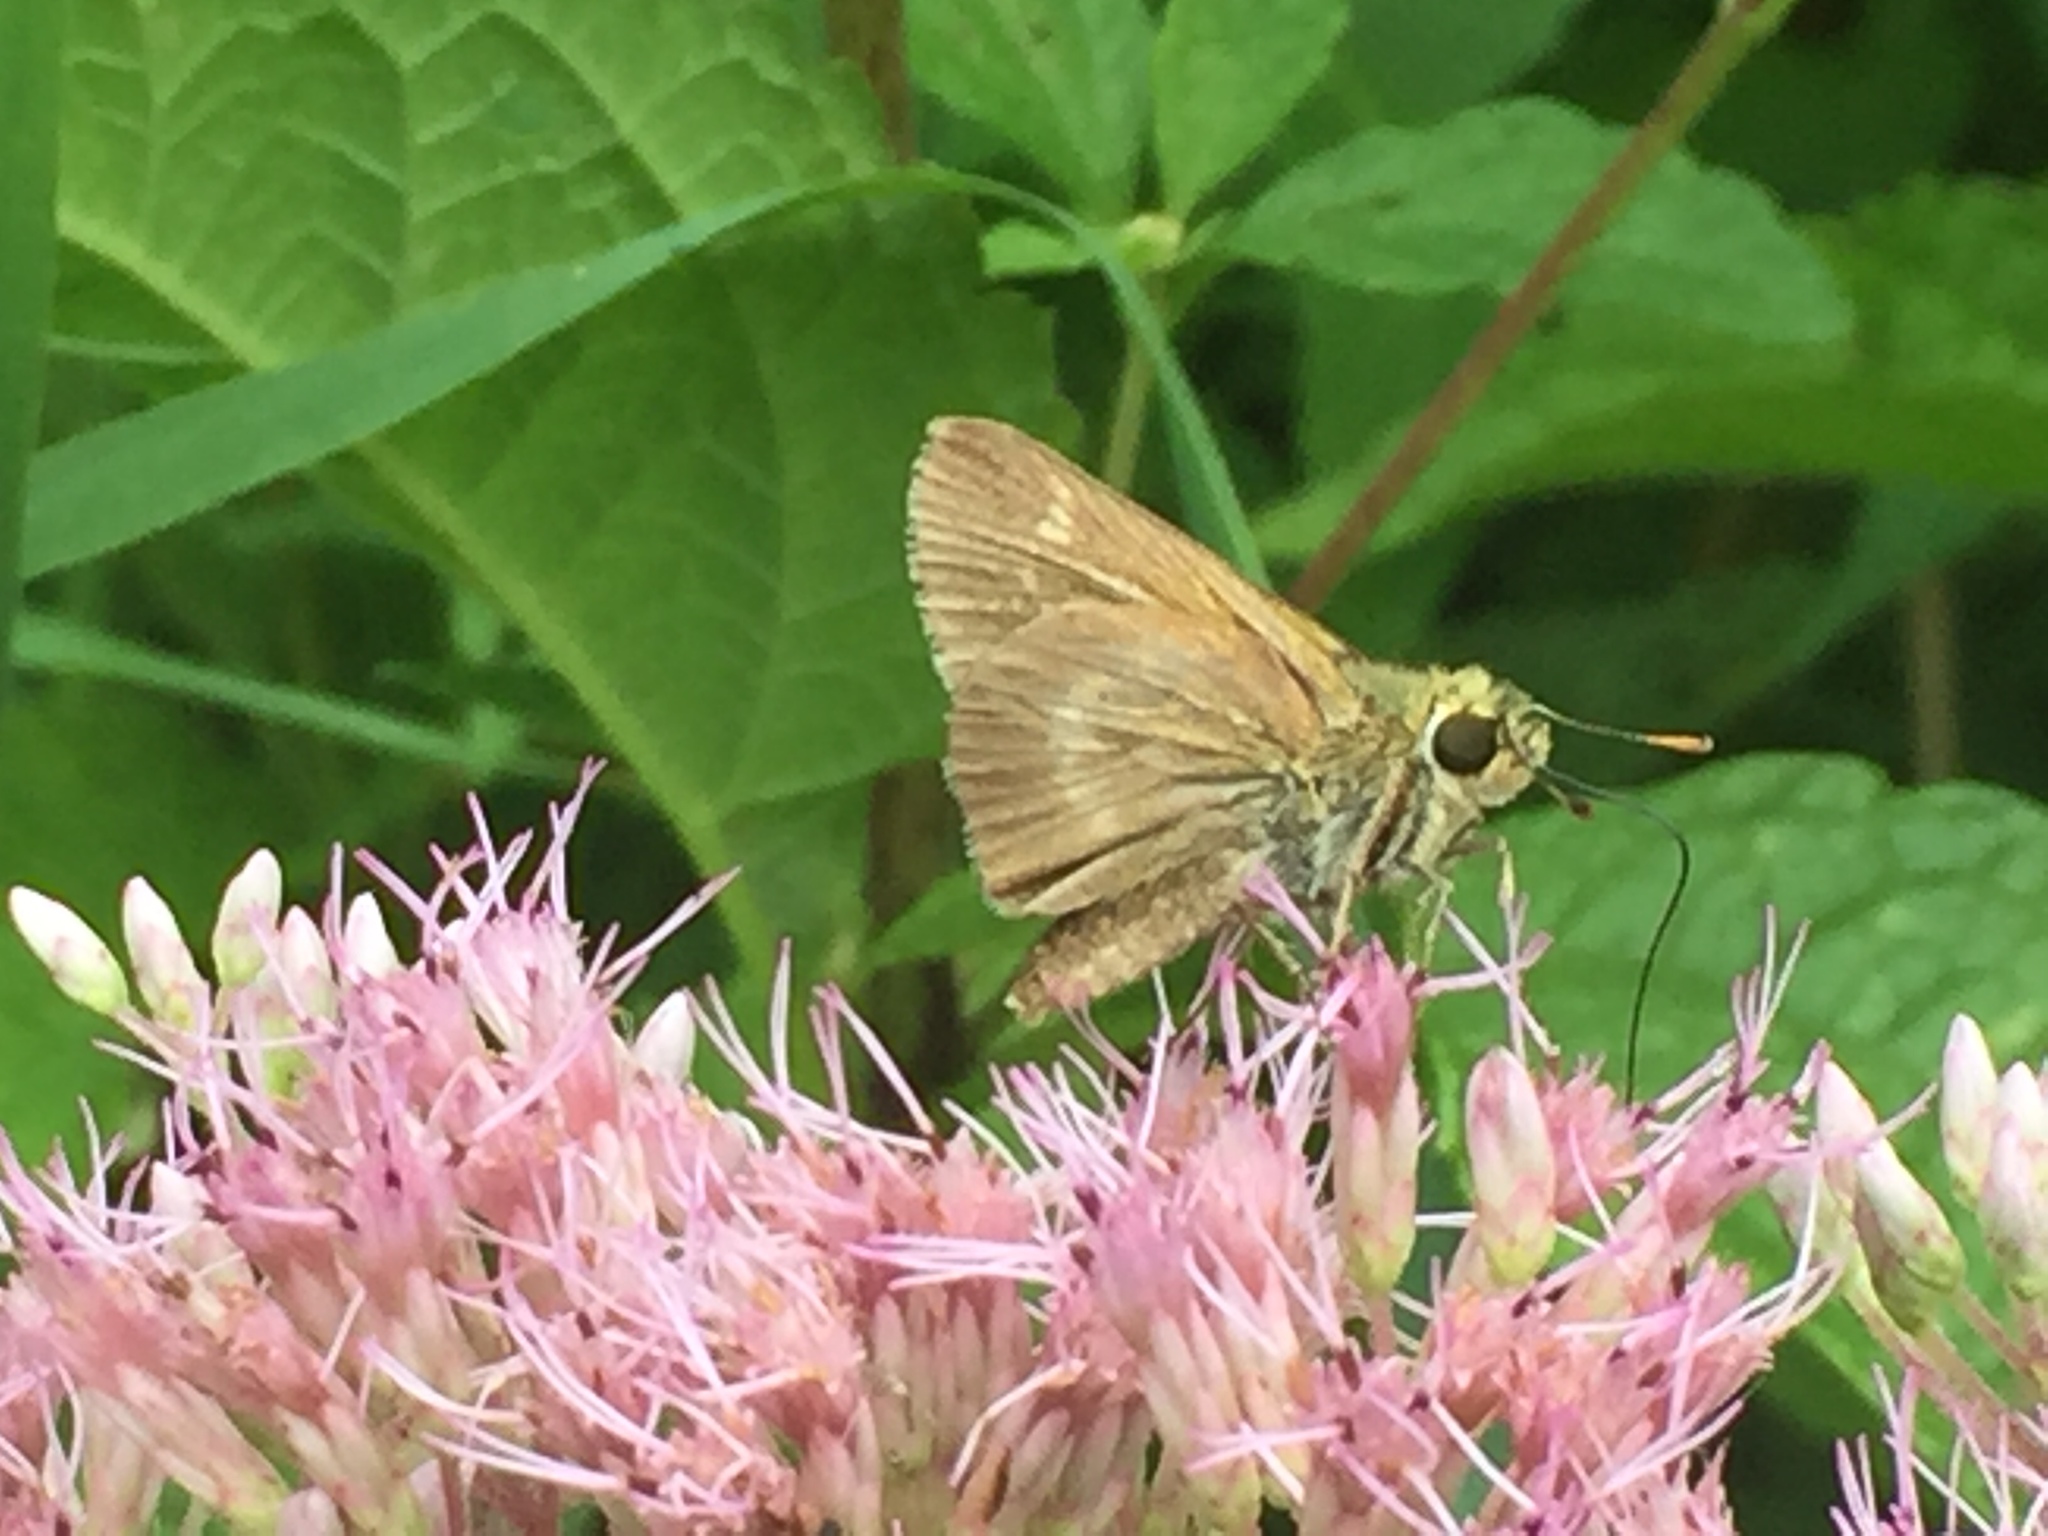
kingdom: Animalia
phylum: Arthropoda
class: Insecta
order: Lepidoptera
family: Hesperiidae
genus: Polites
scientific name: Polites egeremet
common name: Northern broken-dash
